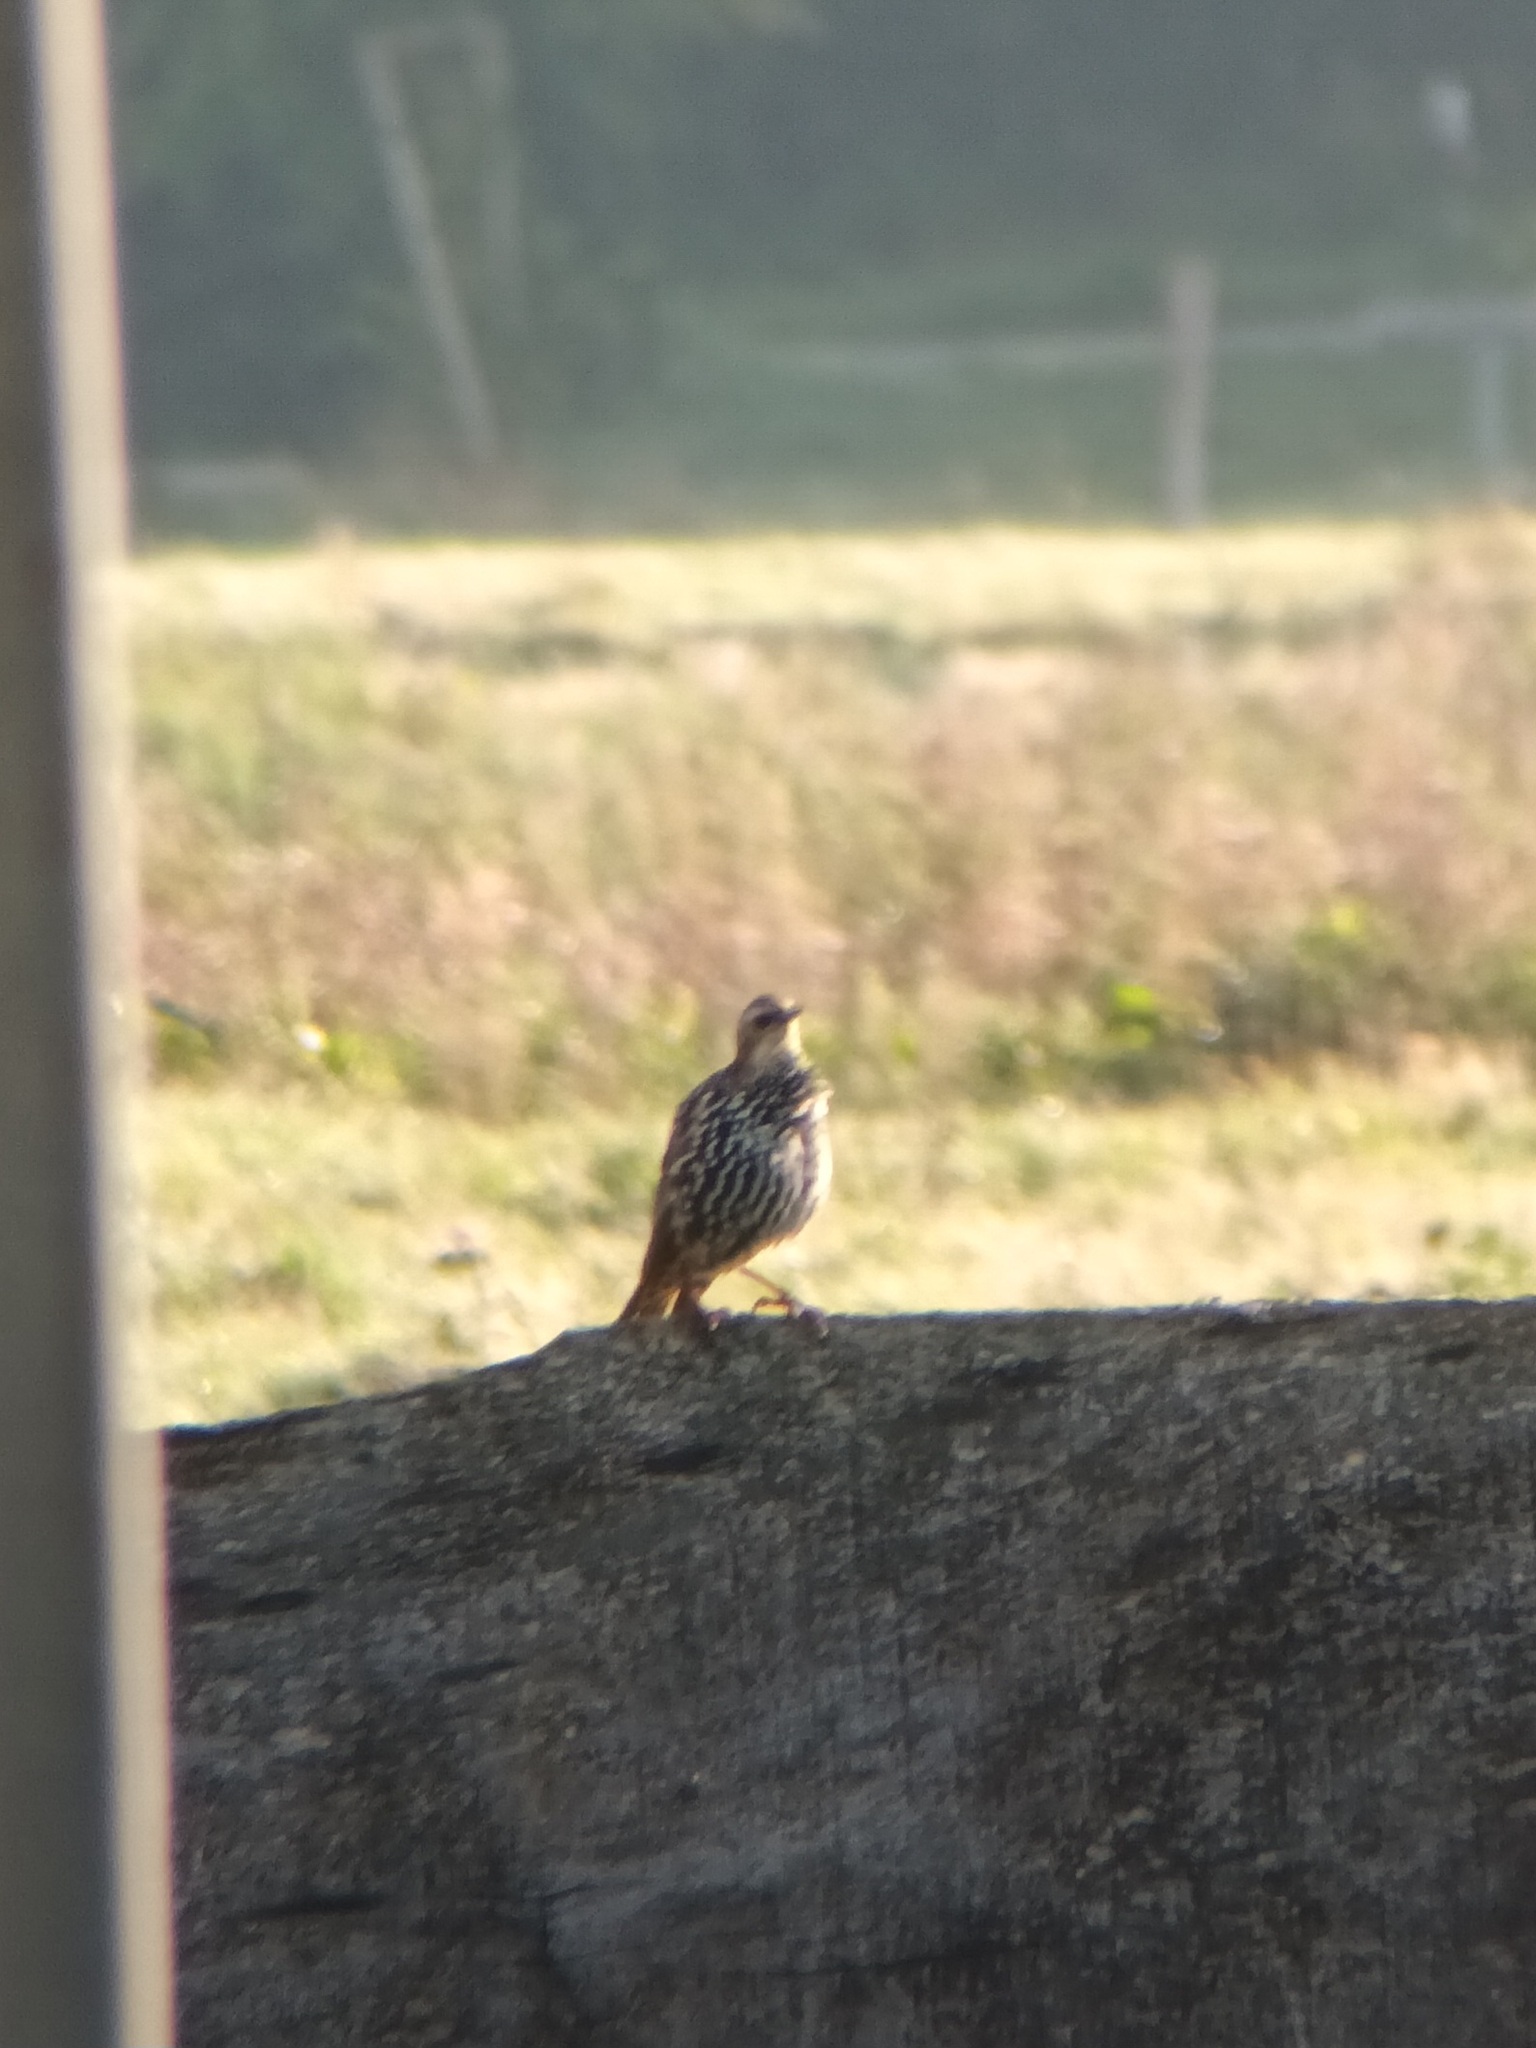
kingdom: Animalia
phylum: Chordata
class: Aves
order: Passeriformes
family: Sturnidae
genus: Sturnus
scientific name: Sturnus vulgaris
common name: Common starling
